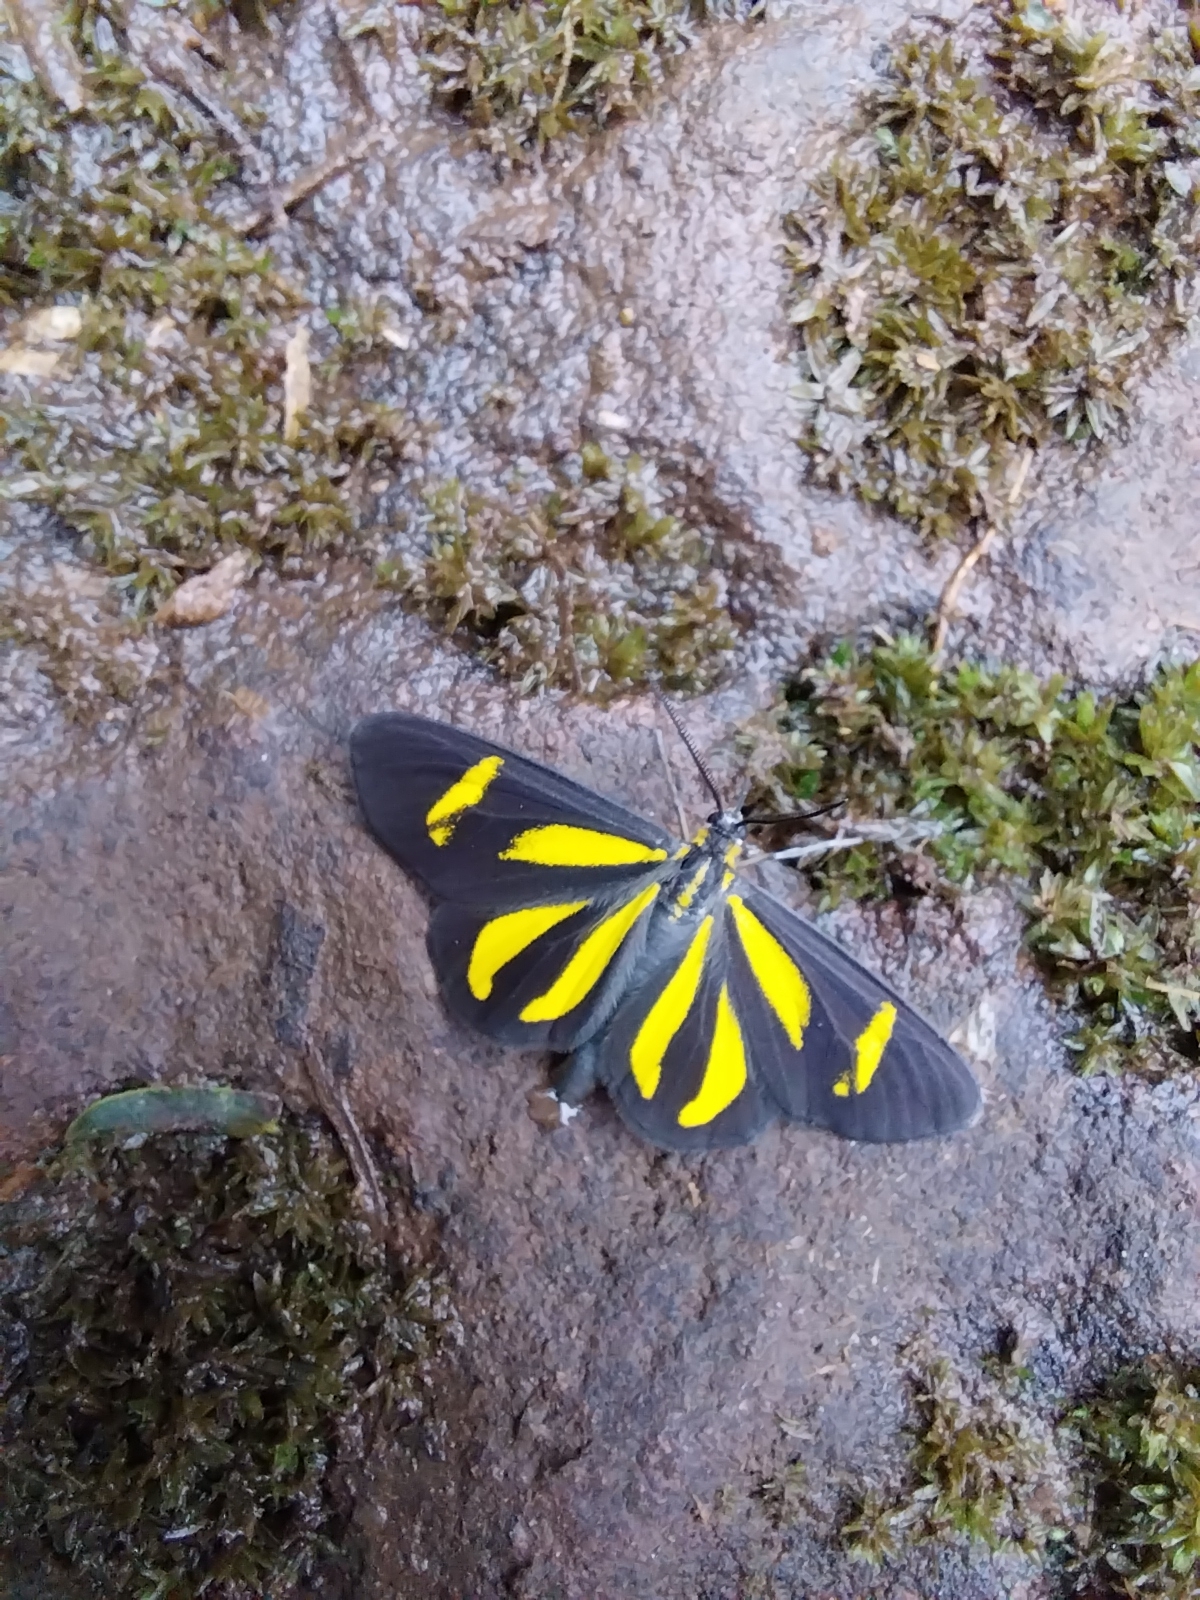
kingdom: Animalia
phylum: Arthropoda
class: Insecta
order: Lepidoptera
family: Geometridae
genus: Cyllopoda
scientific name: Cyllopoda claudicula
